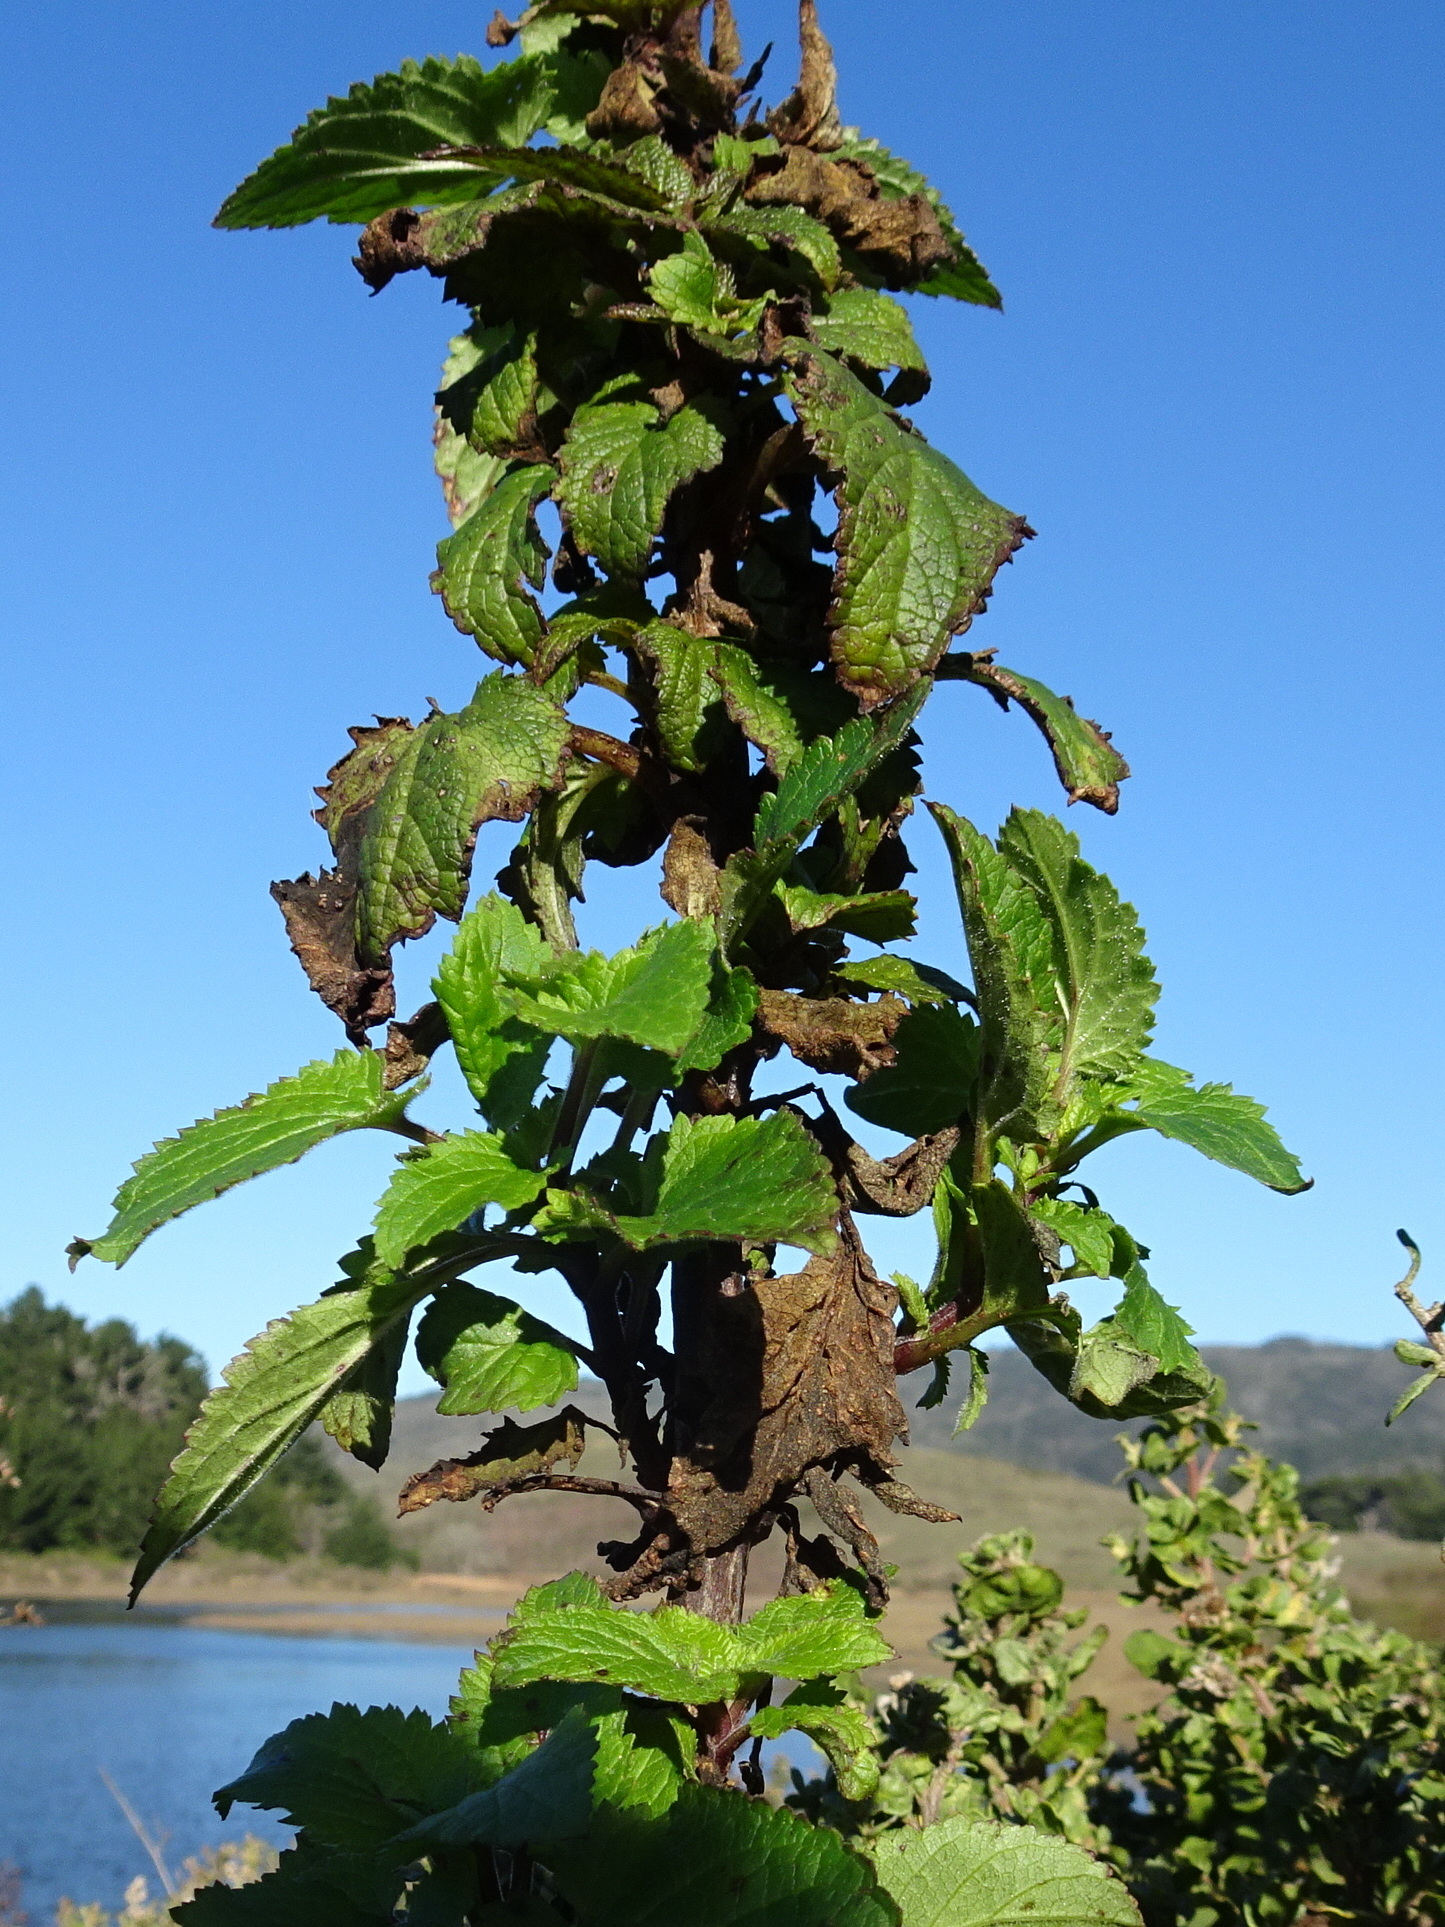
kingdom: Plantae
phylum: Tracheophyta
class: Magnoliopsida
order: Lamiales
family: Scrophulariaceae
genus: Scrophularia
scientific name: Scrophularia californica
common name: California figwort
